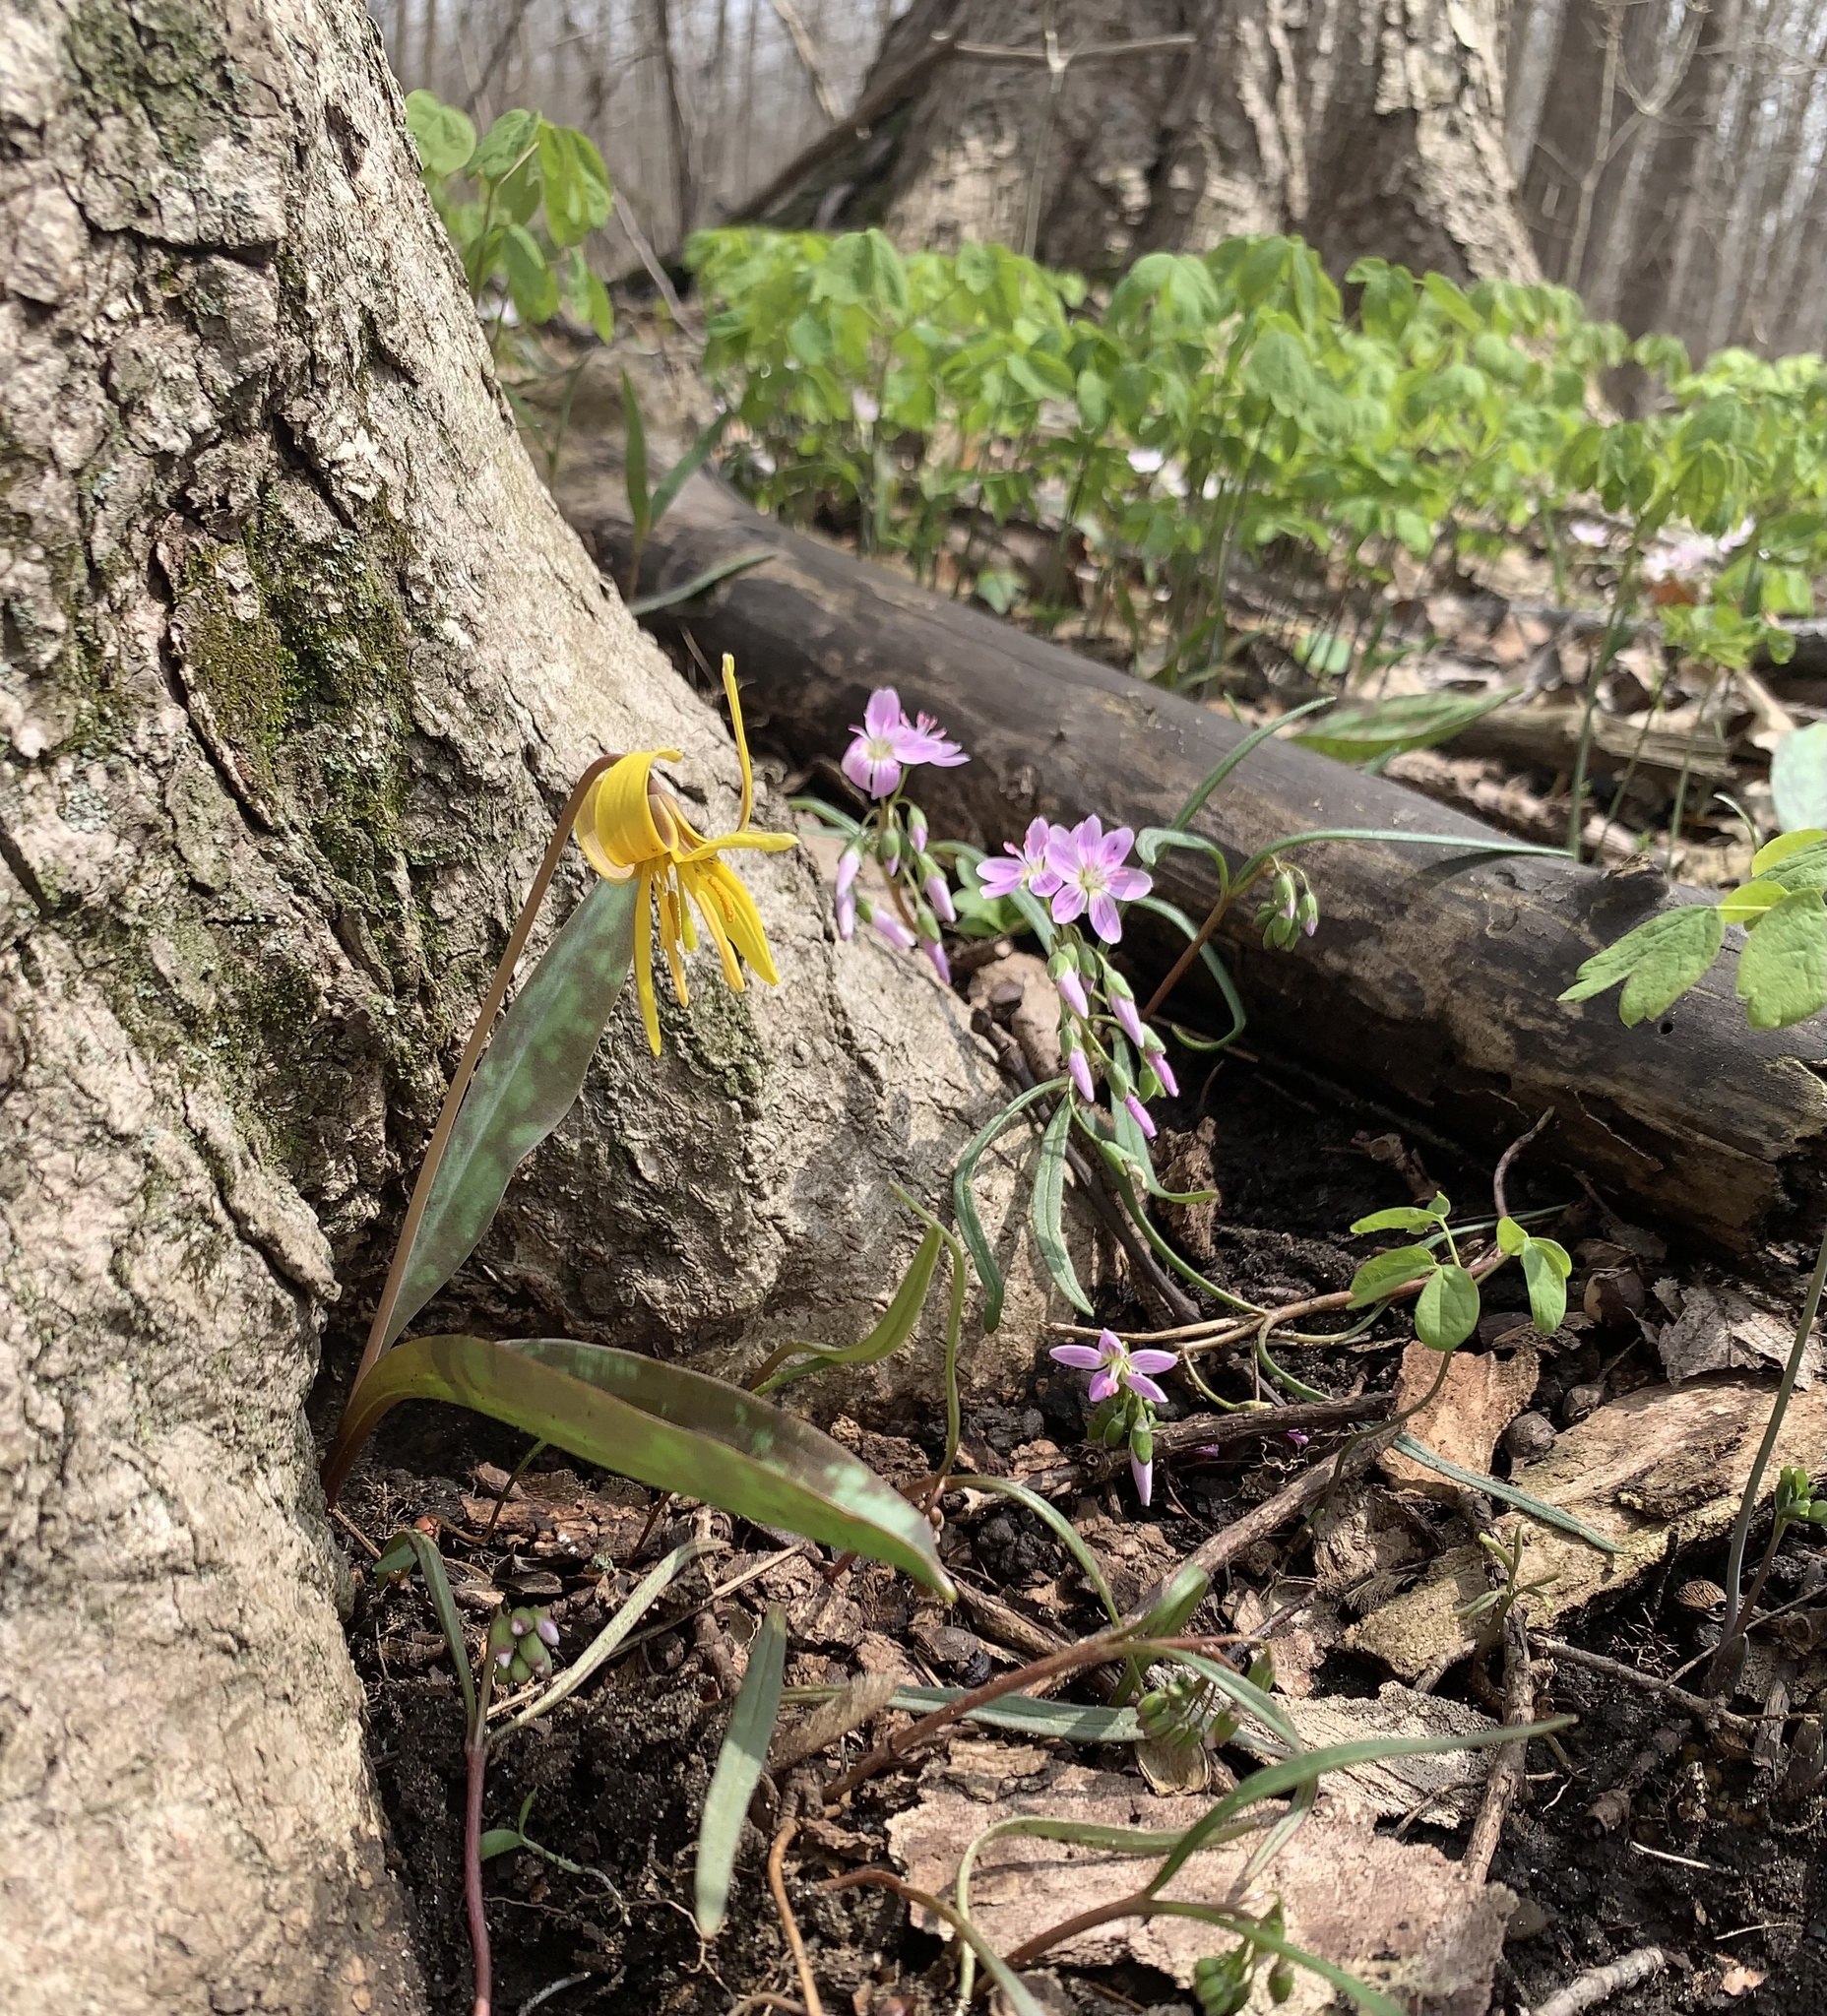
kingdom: Plantae
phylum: Tracheophyta
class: Liliopsida
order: Liliales
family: Liliaceae
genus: Erythronium
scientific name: Erythronium americanum
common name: Yellow adder's-tongue
